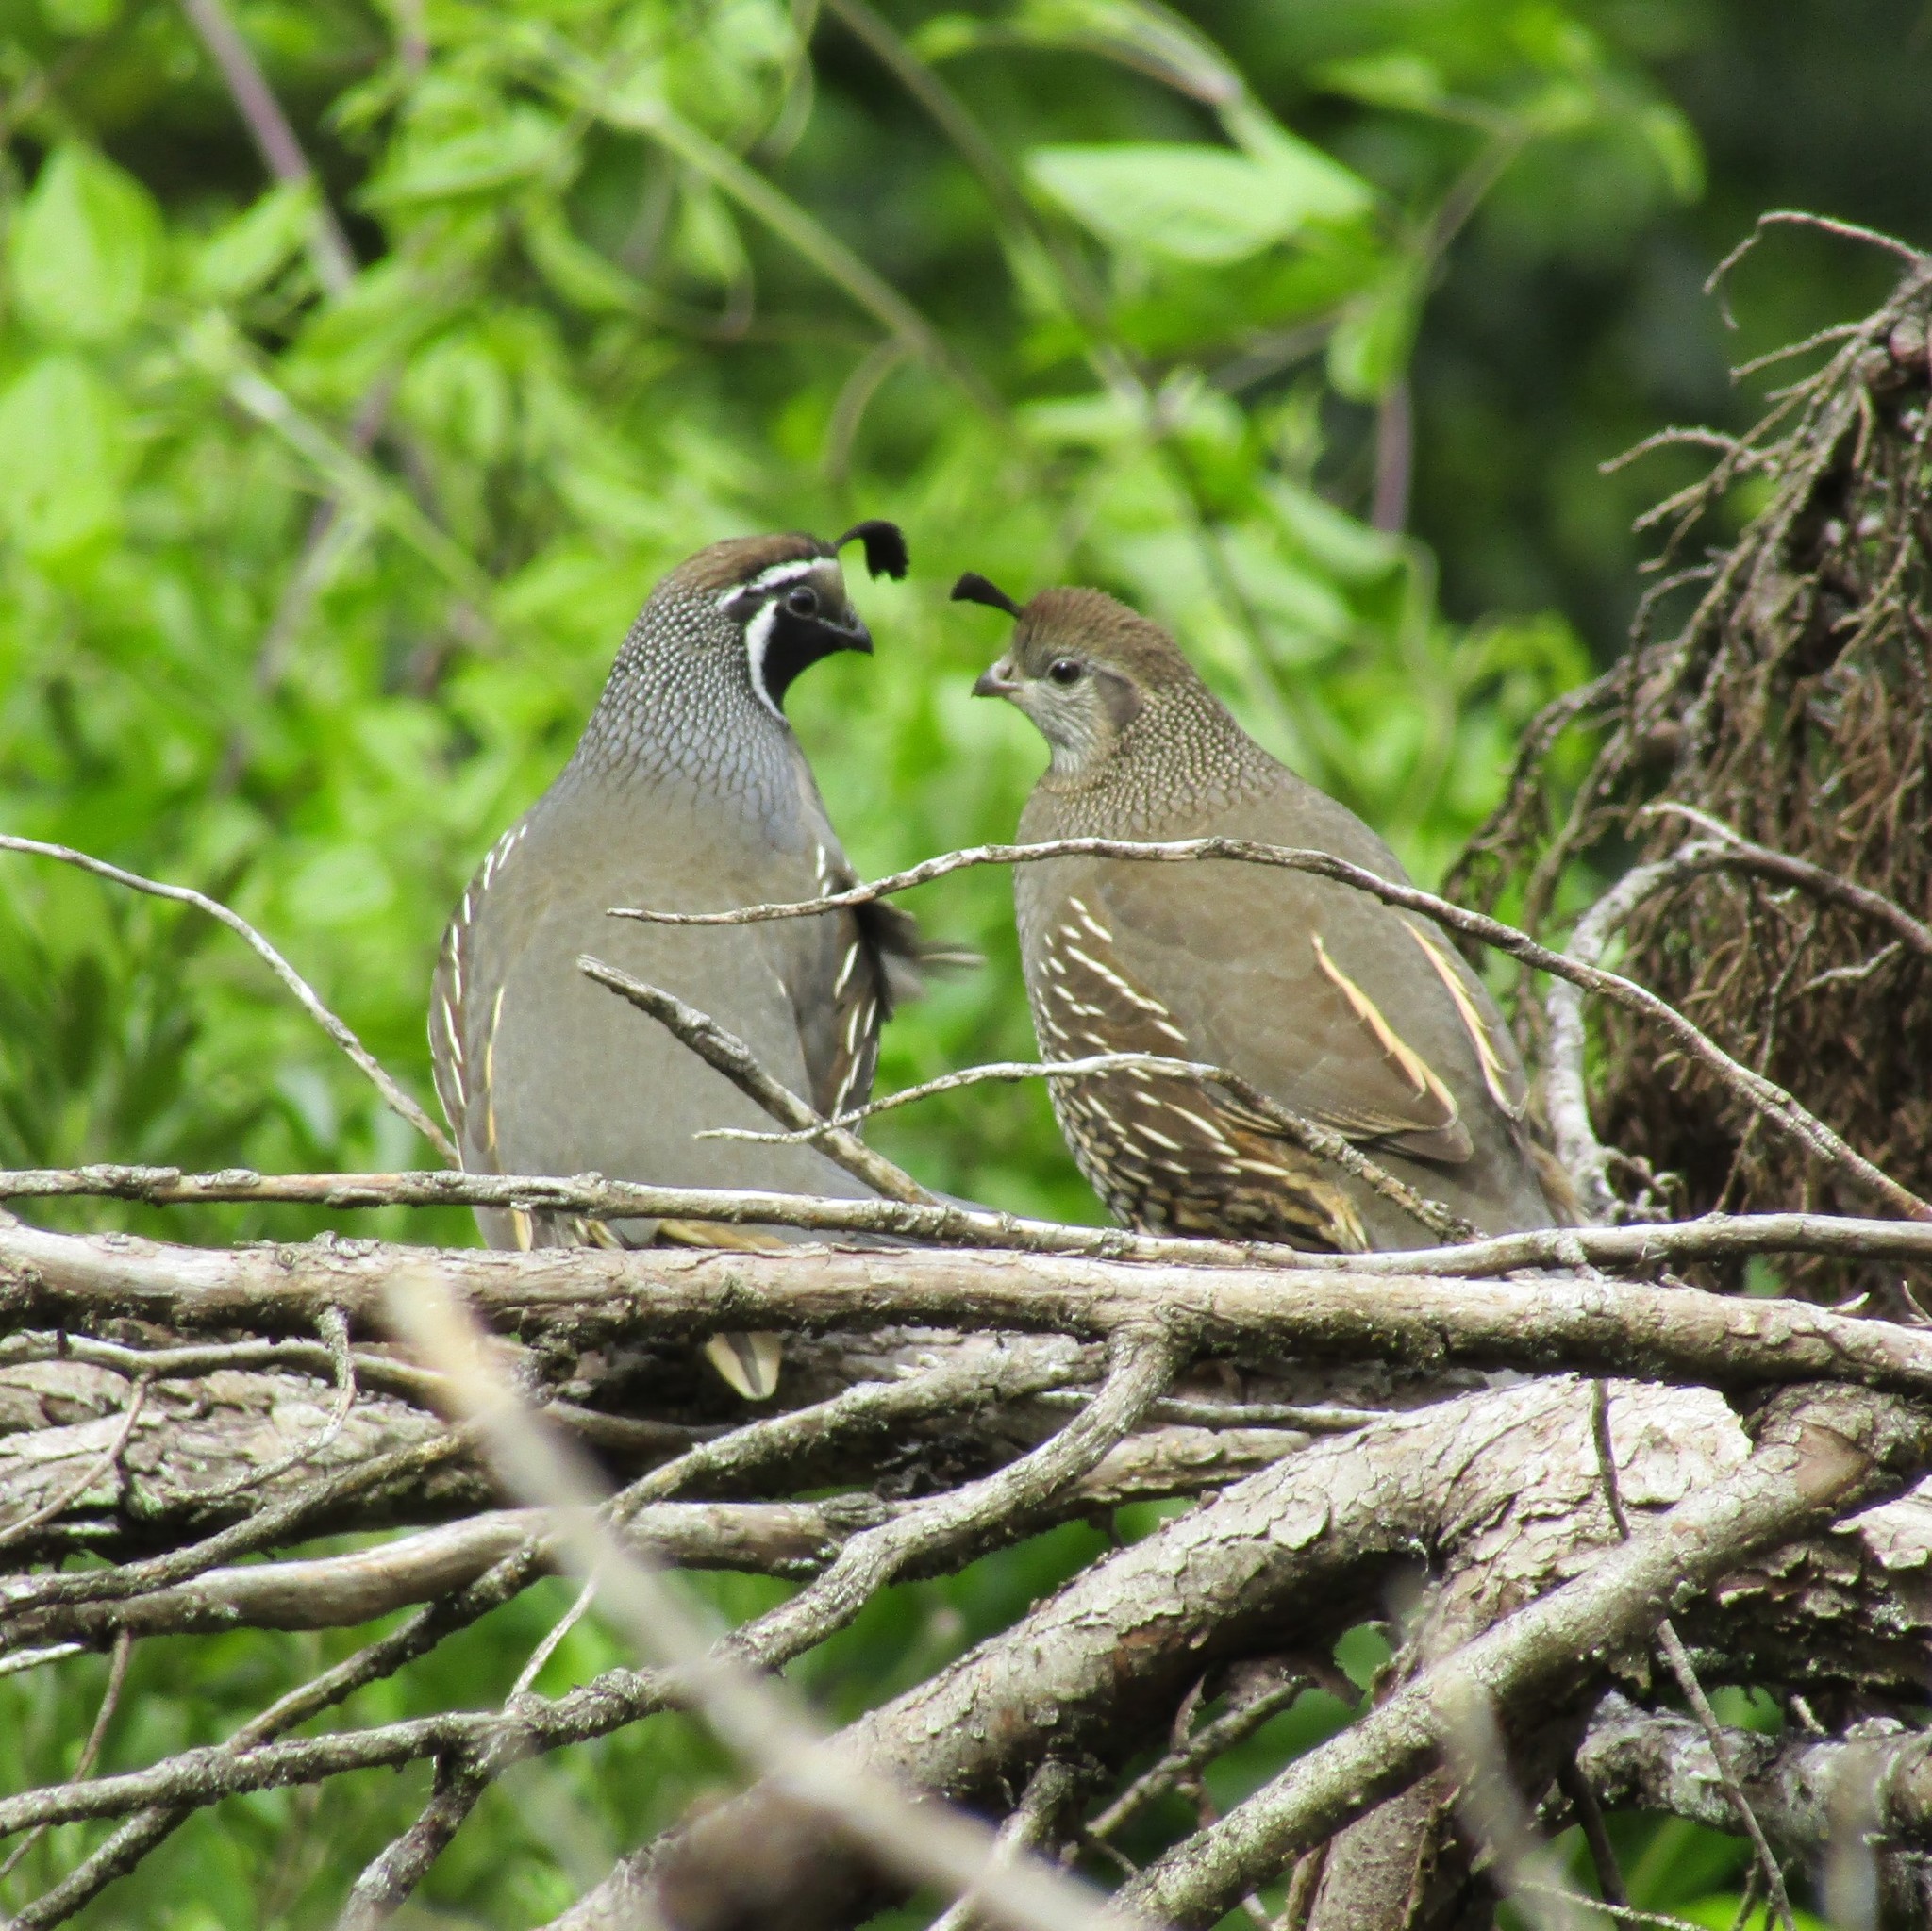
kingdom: Animalia
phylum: Chordata
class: Aves
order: Galliformes
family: Odontophoridae
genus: Callipepla
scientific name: Callipepla californica
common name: California quail
